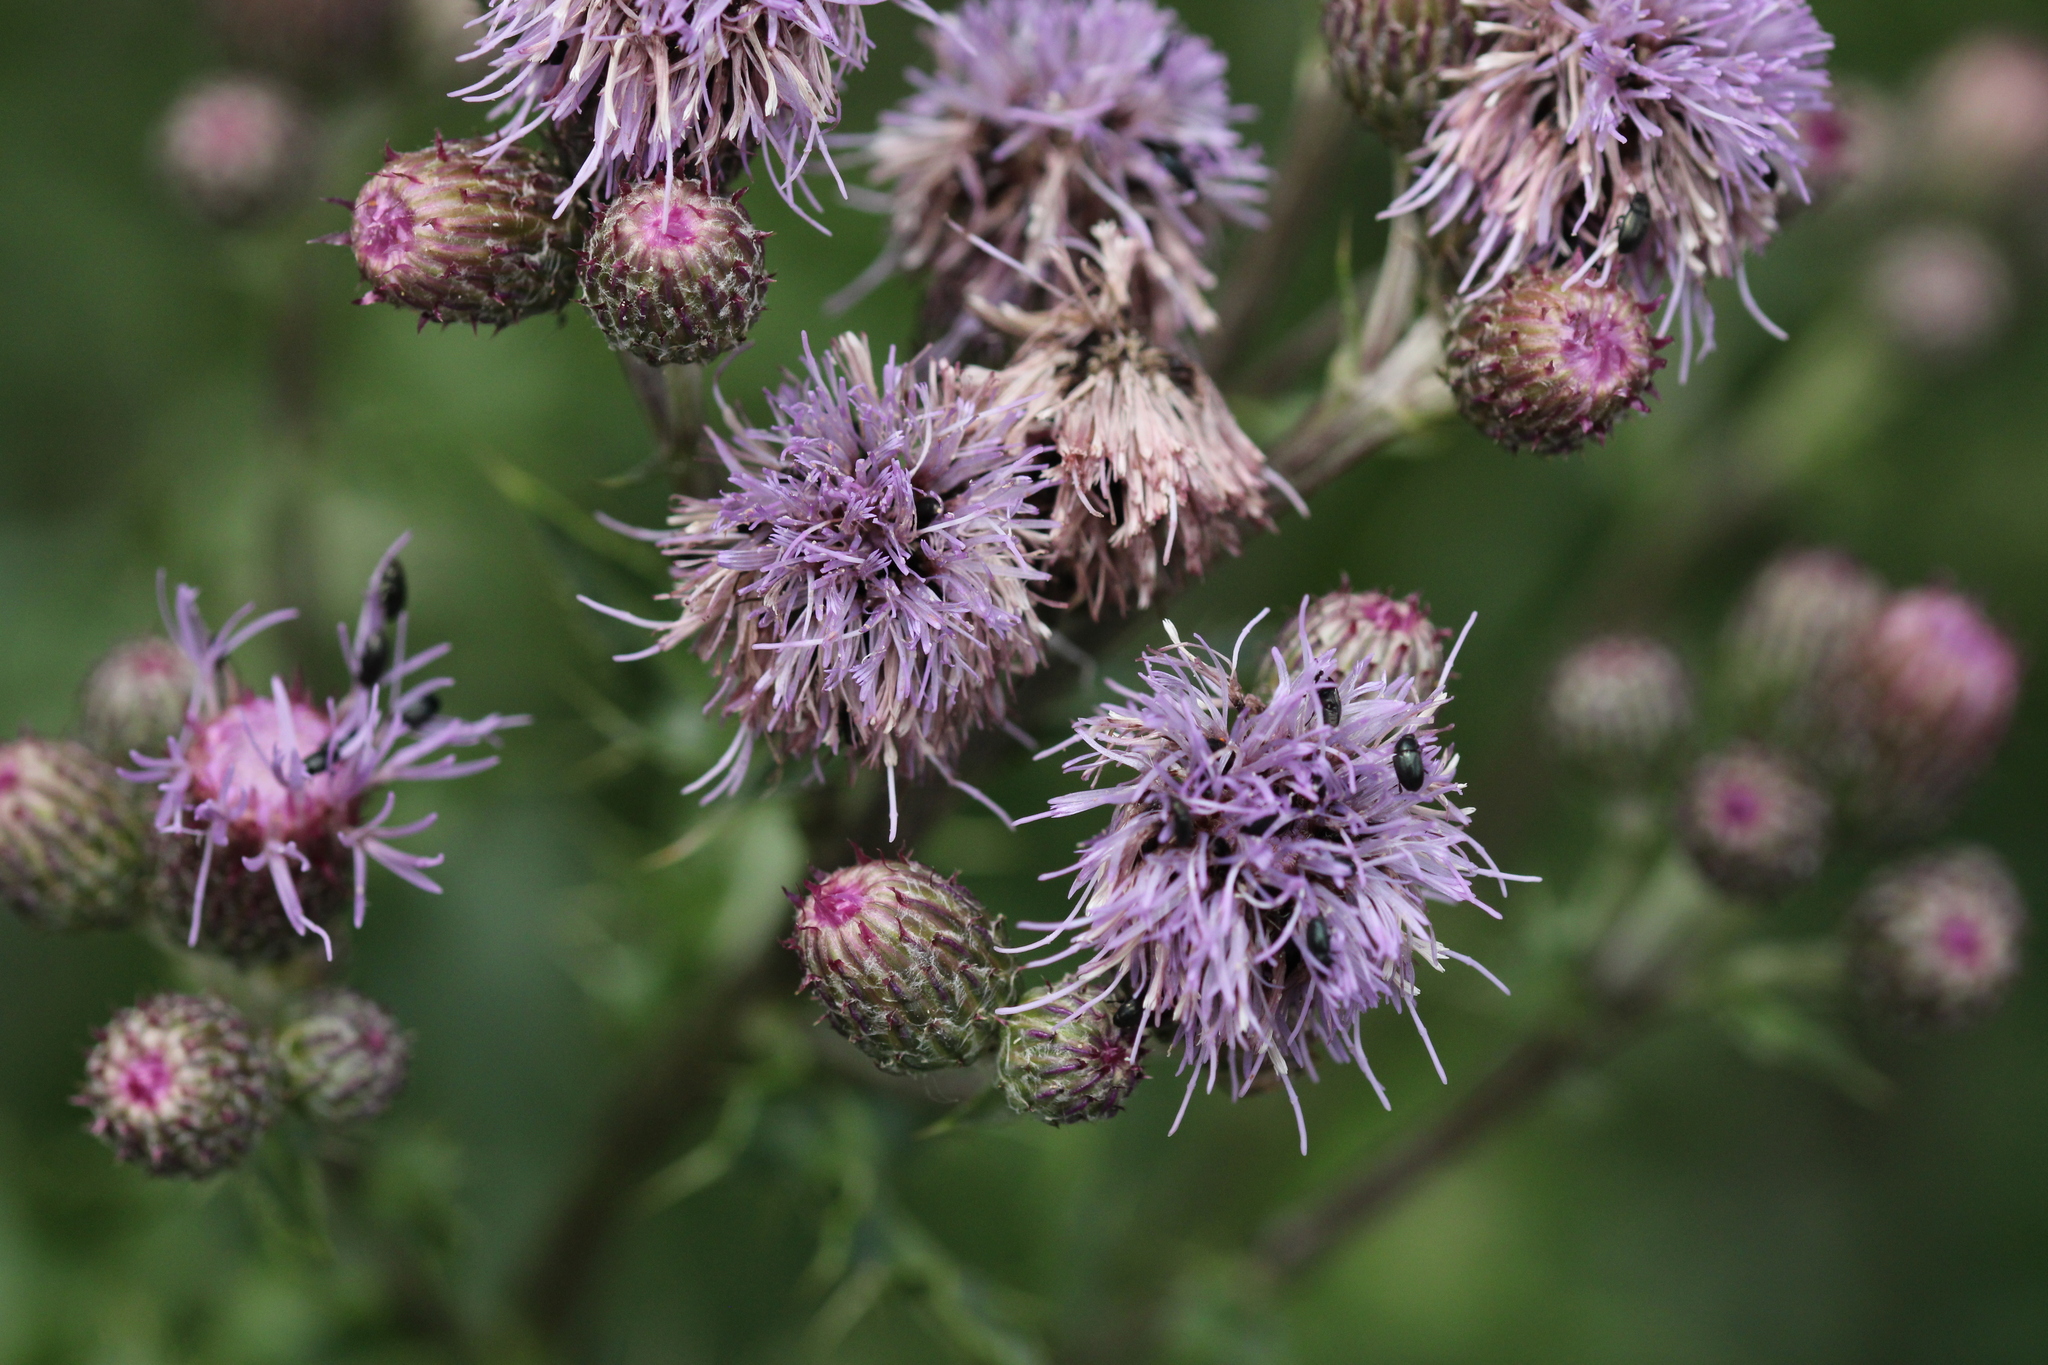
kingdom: Plantae
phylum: Tracheophyta
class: Magnoliopsida
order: Asterales
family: Asteraceae
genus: Cirsium
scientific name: Cirsium arvense
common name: Creeping thistle
